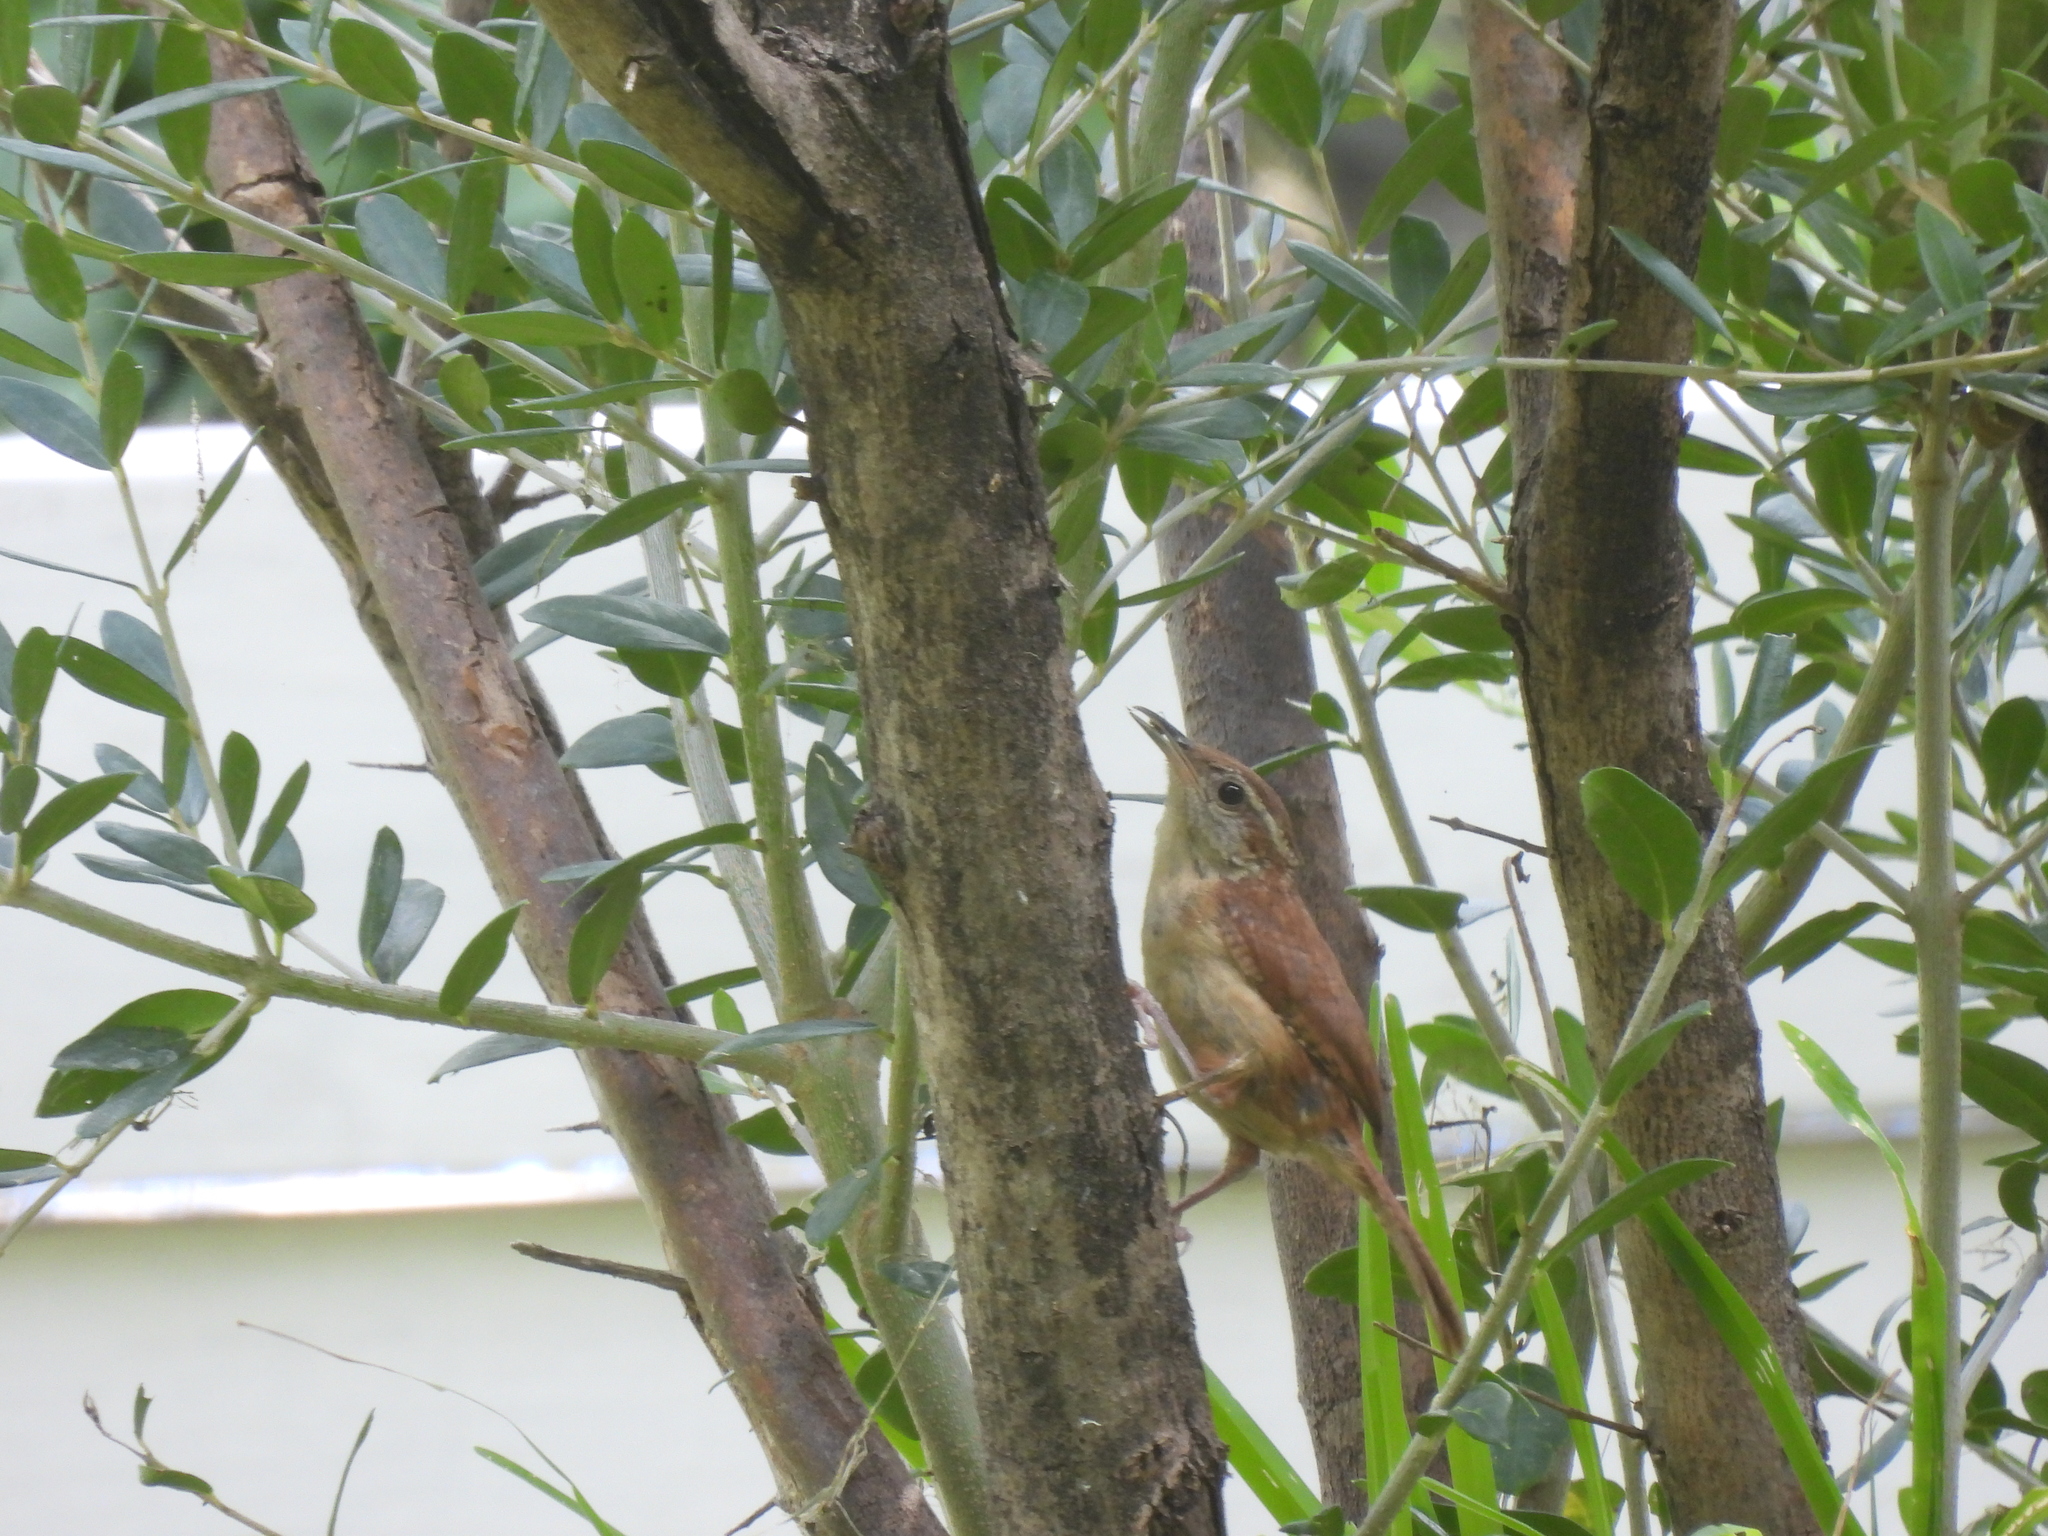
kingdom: Animalia
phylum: Chordata
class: Aves
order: Passeriformes
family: Troglodytidae
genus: Thryothorus
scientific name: Thryothorus ludovicianus
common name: Carolina wren
